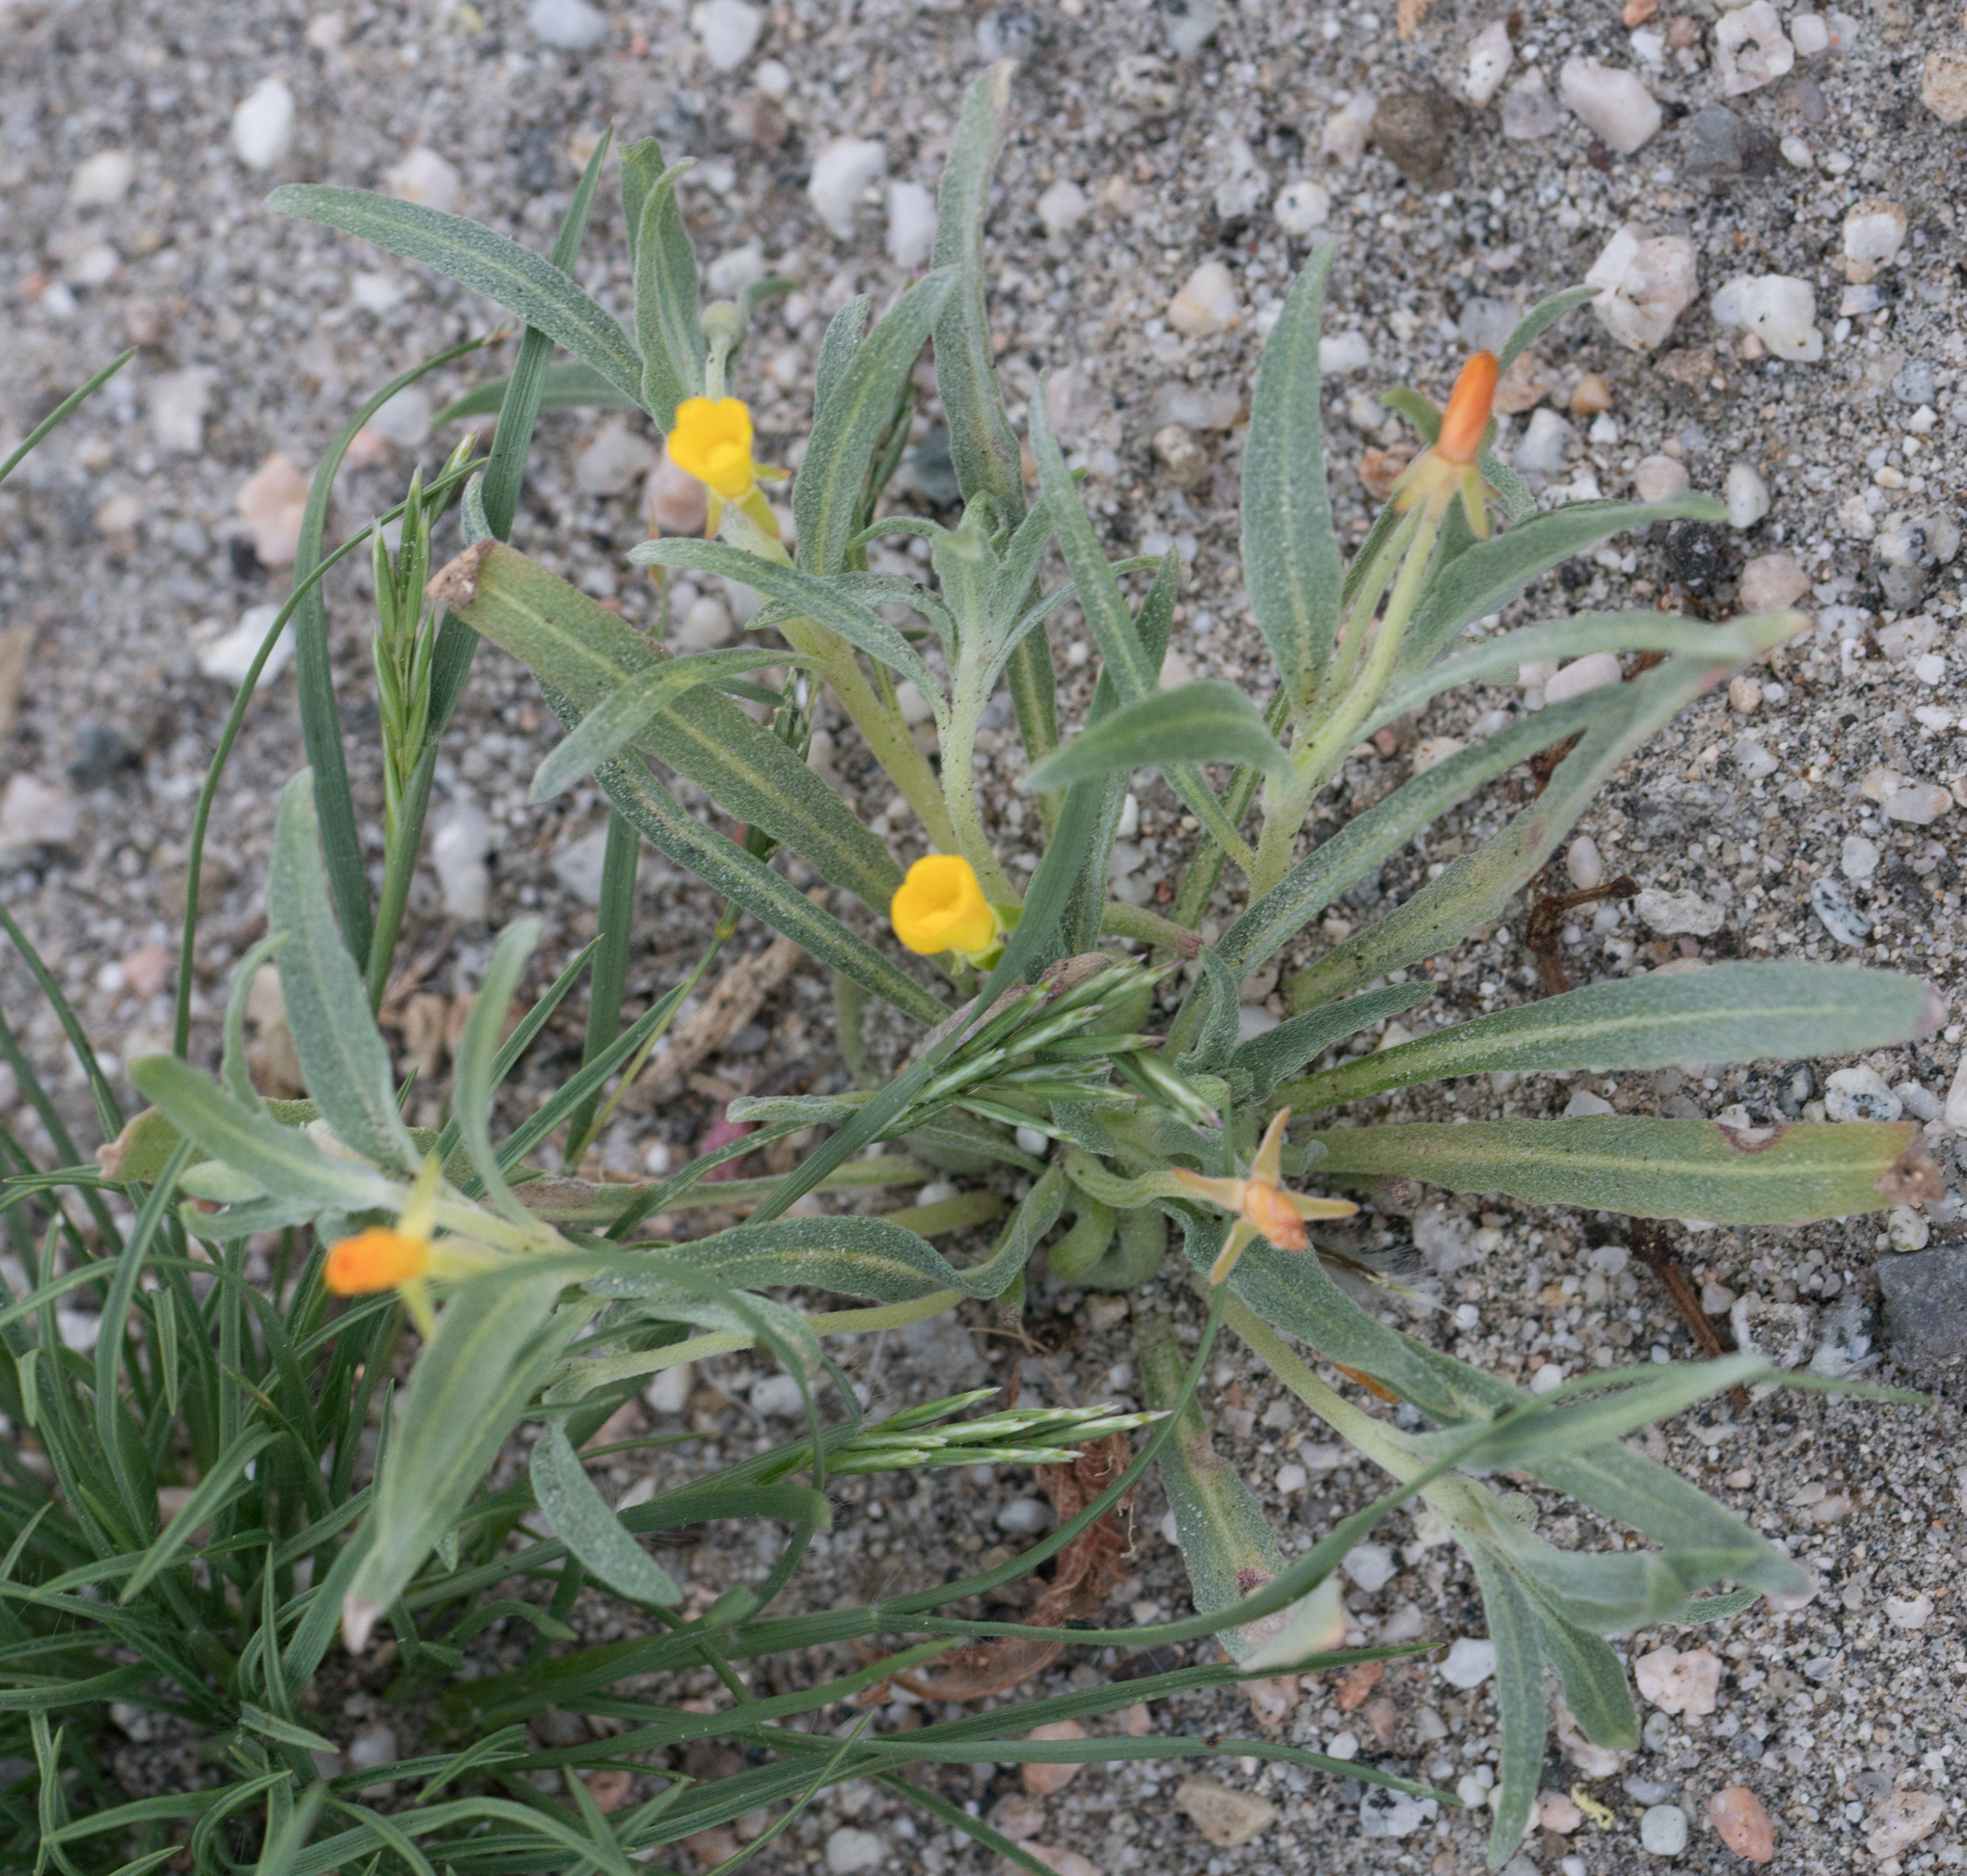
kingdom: Plantae
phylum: Tracheophyta
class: Magnoliopsida
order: Myrtales
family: Onagraceae
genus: Camissoniopsis
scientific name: Camissoniopsis pallida
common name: Paleyellow suncup
